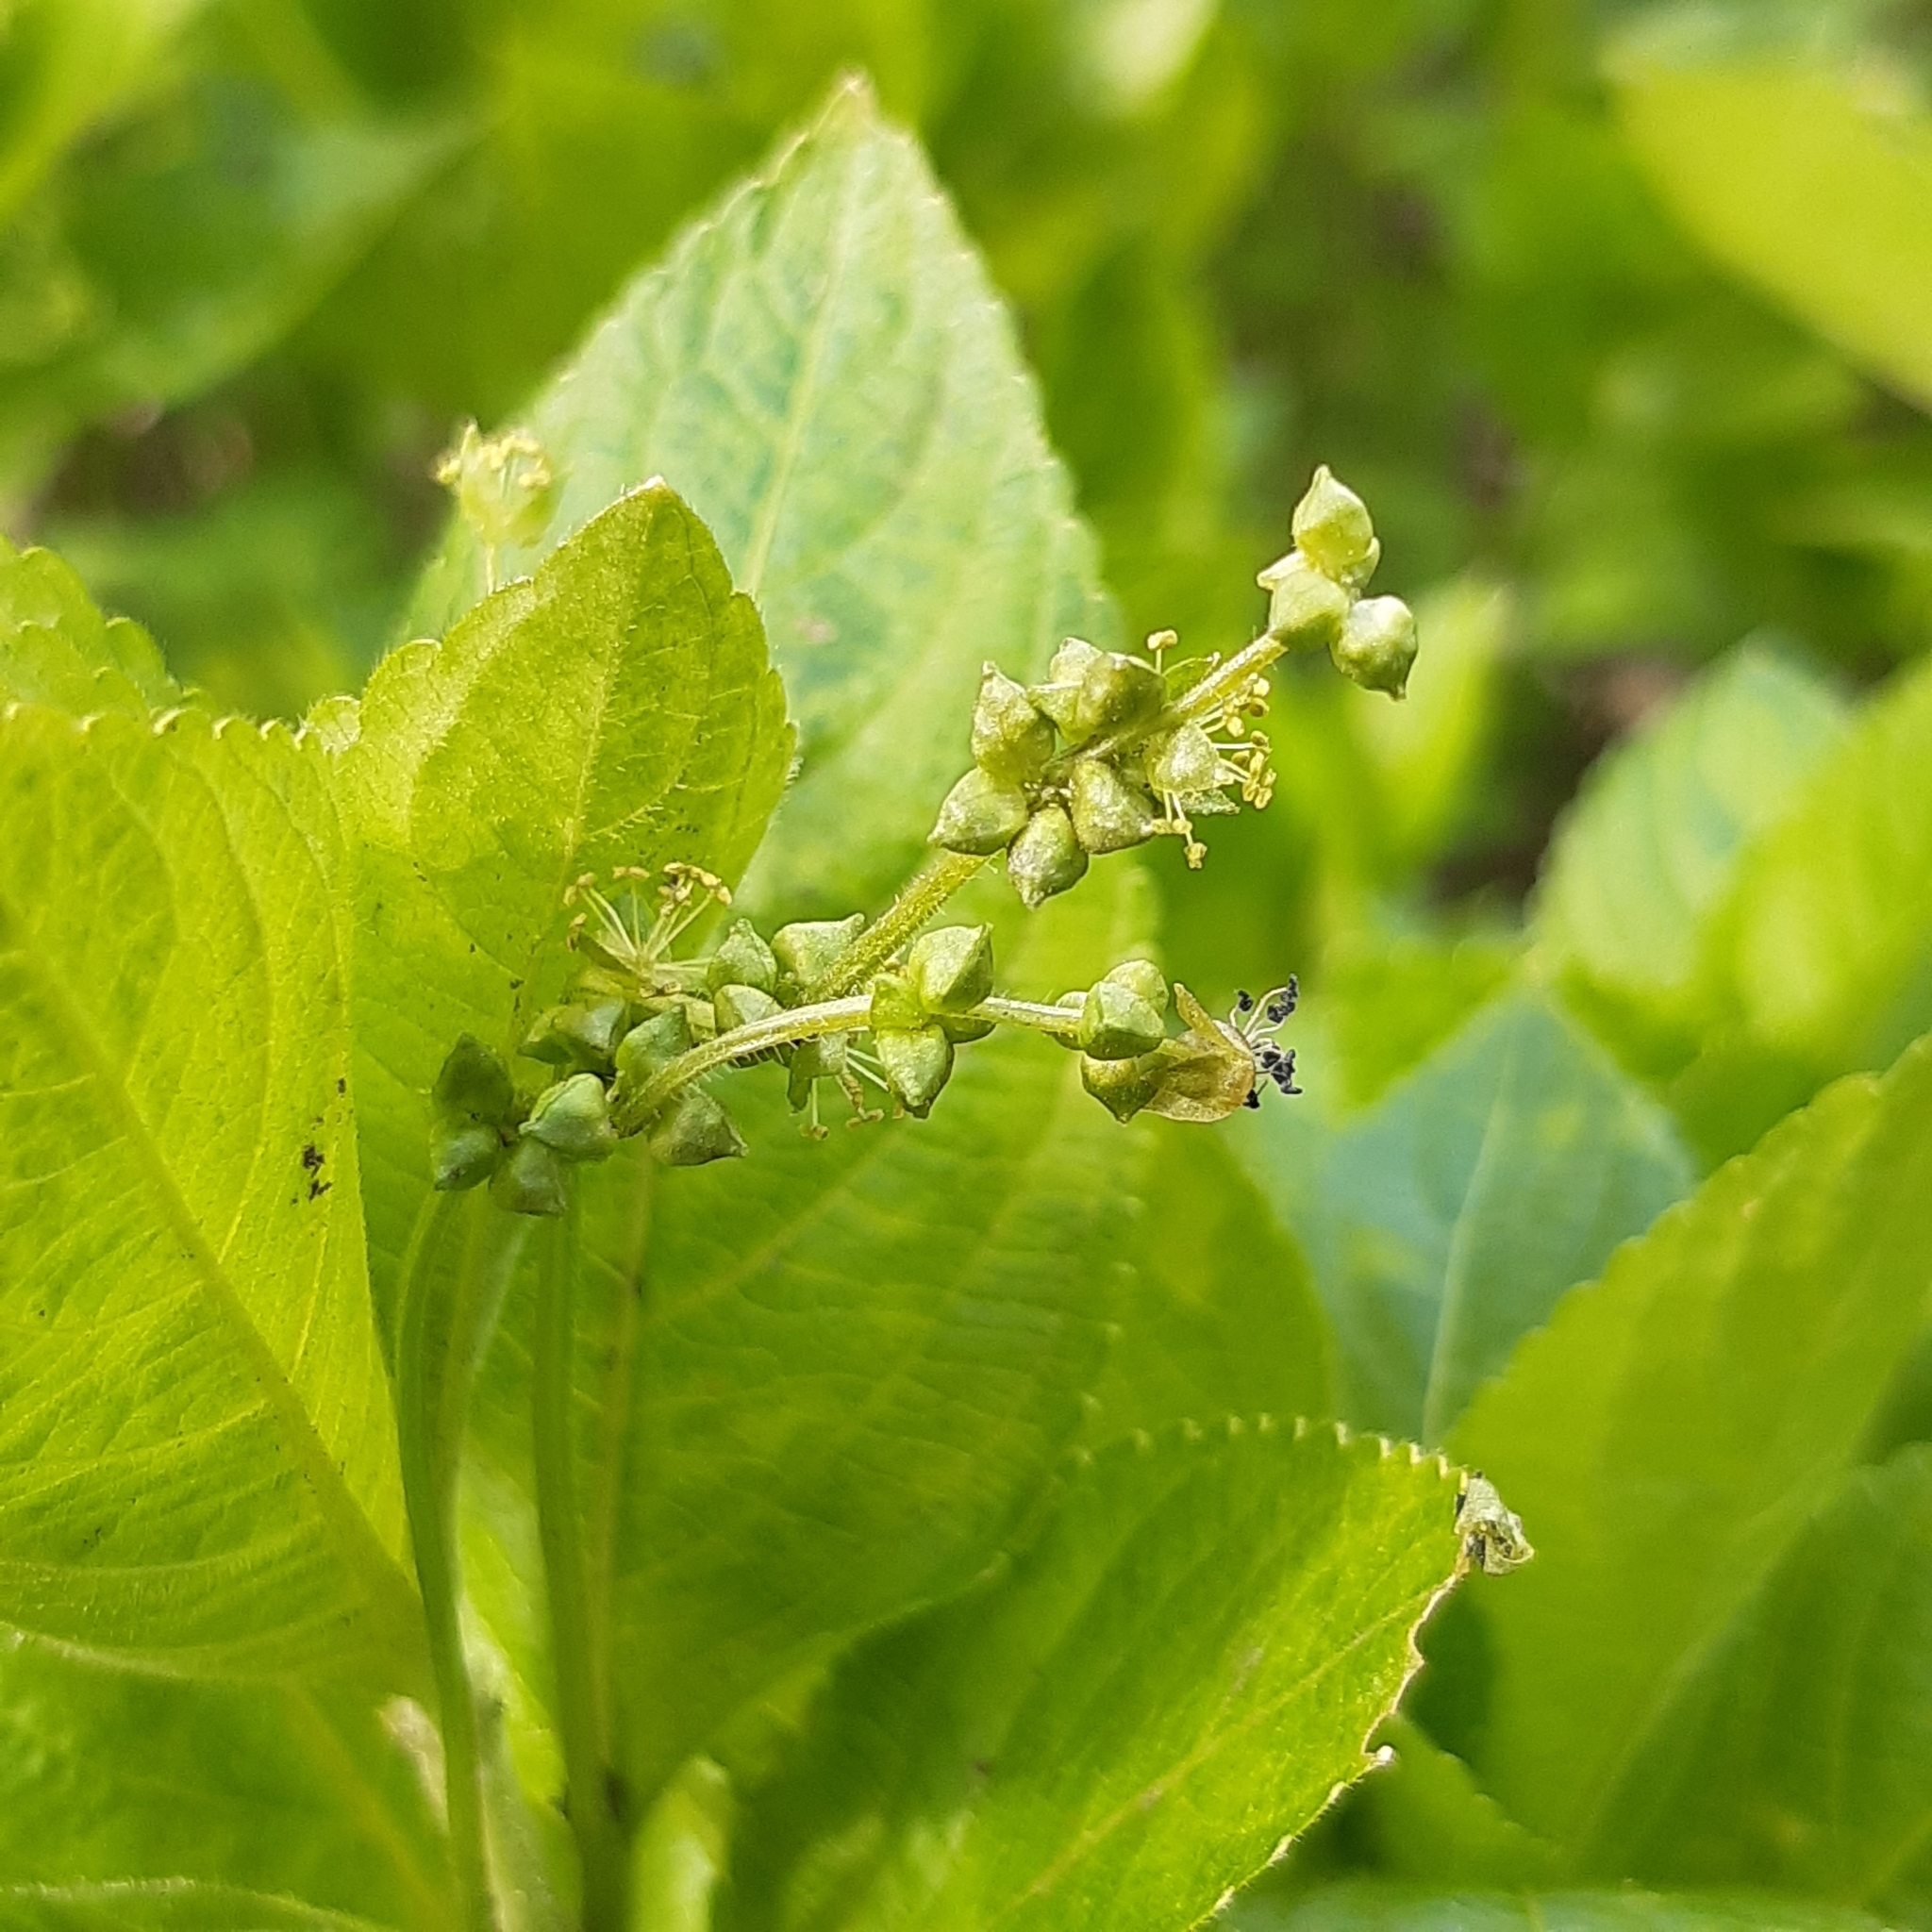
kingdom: Plantae
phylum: Tracheophyta
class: Magnoliopsida
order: Malpighiales
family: Euphorbiaceae
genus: Mercurialis
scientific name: Mercurialis perennis
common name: Dog mercury
